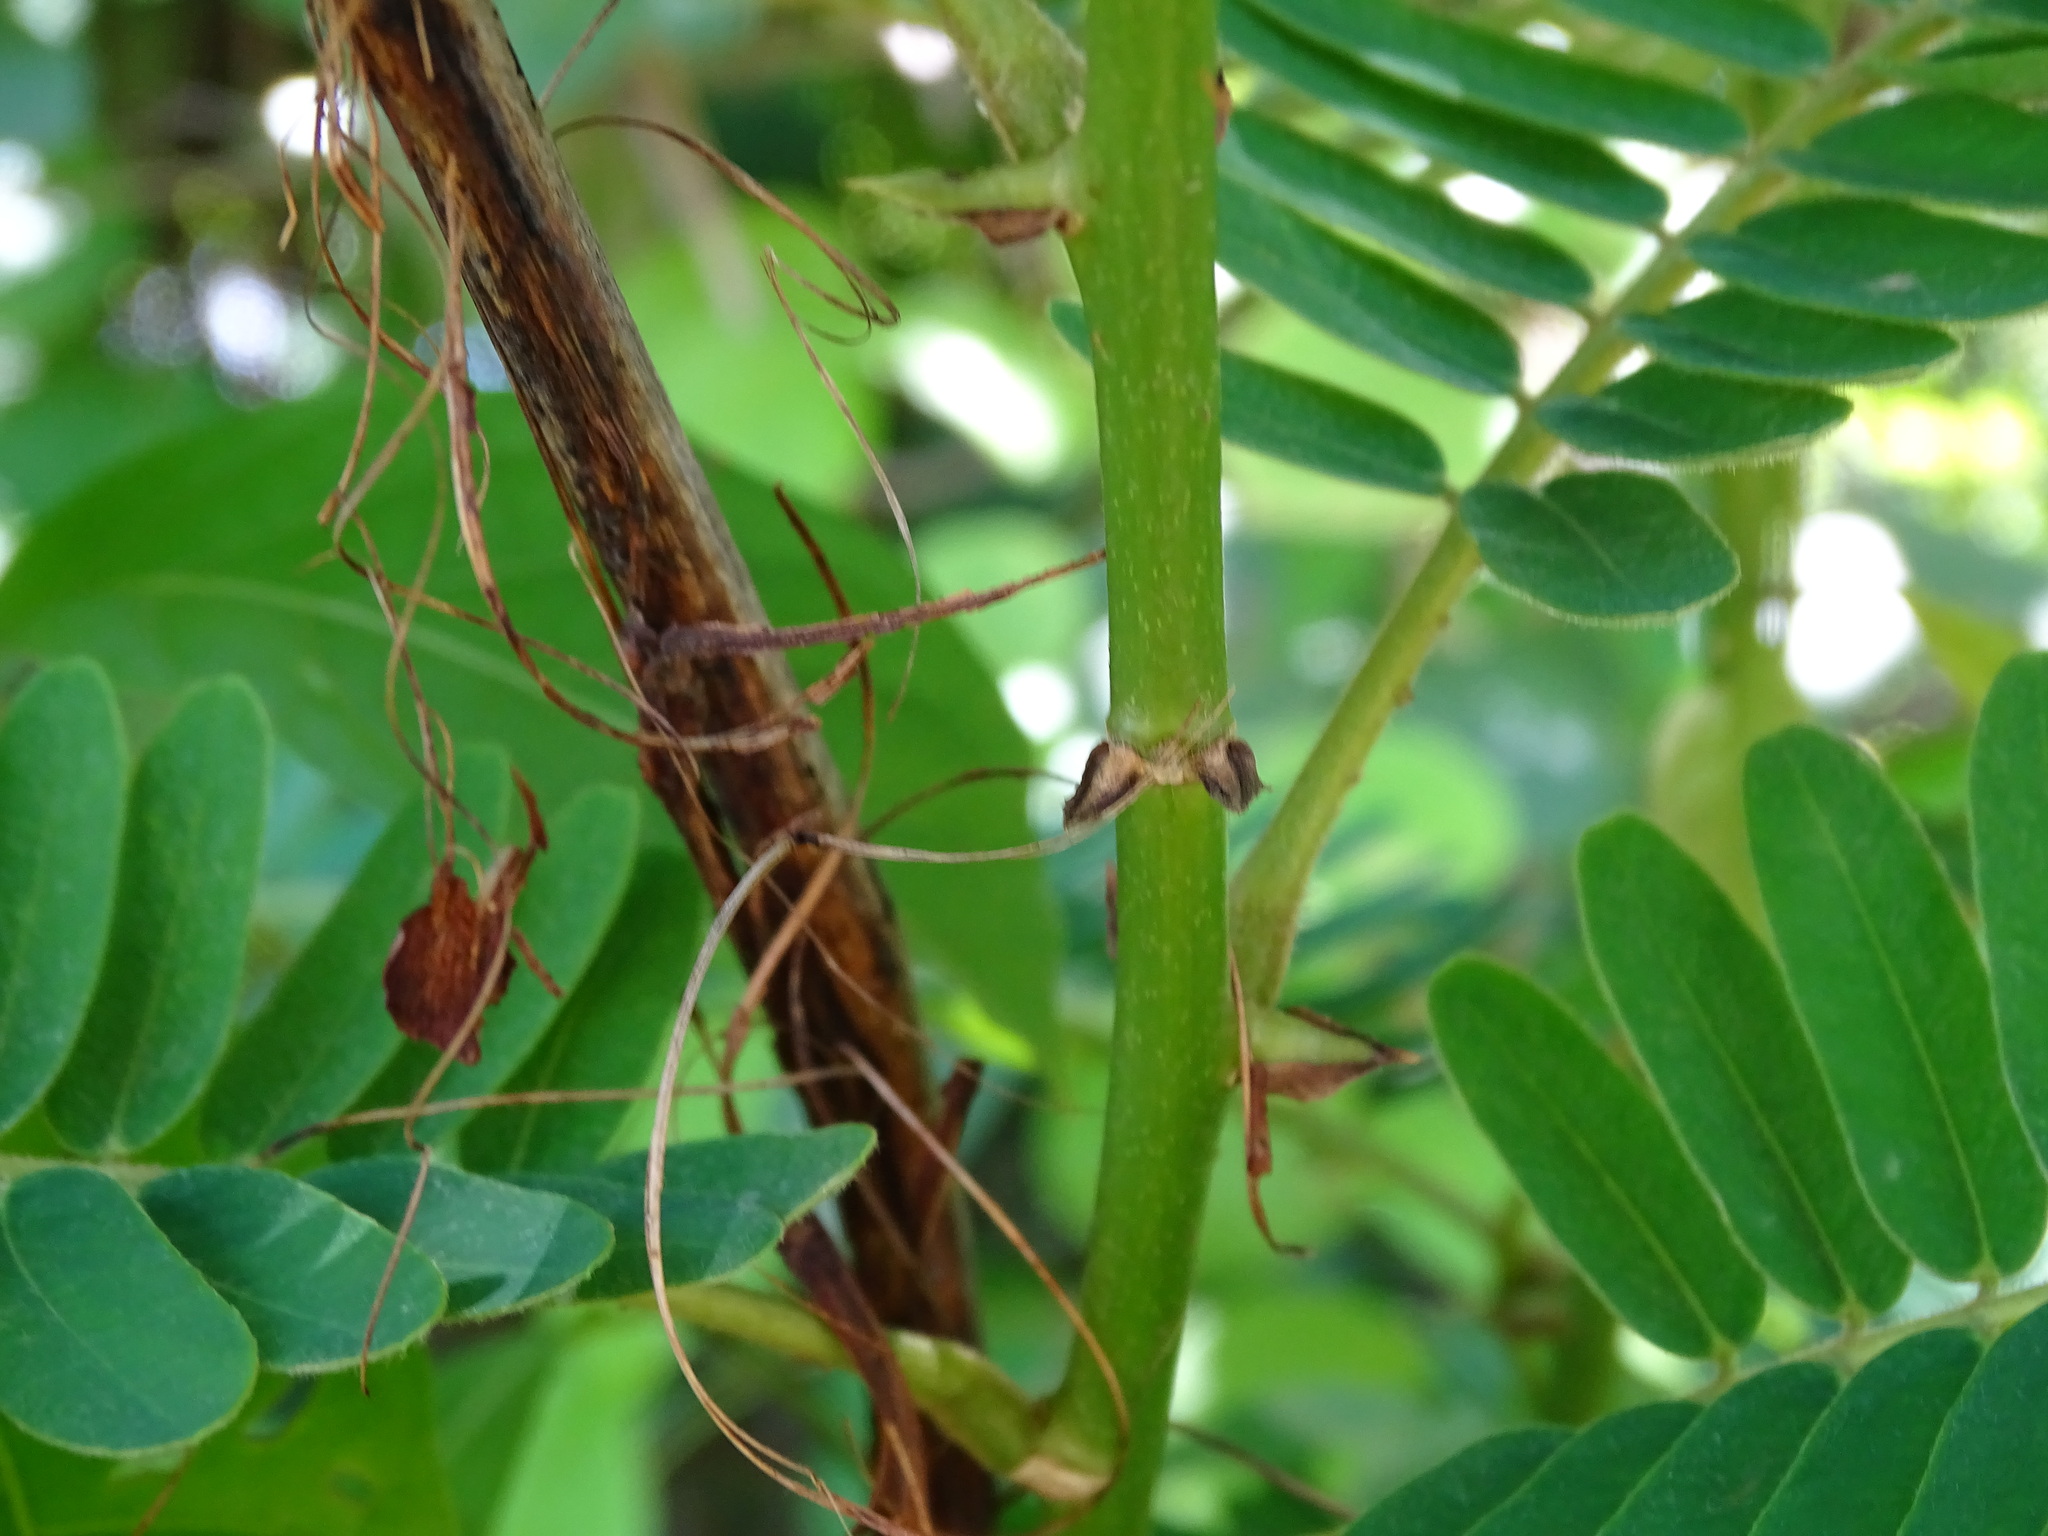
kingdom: Plantae
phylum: Tracheophyta
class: Magnoliopsida
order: Fabales
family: Fabaceae
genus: Machaerium
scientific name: Machaerium isadelphum
